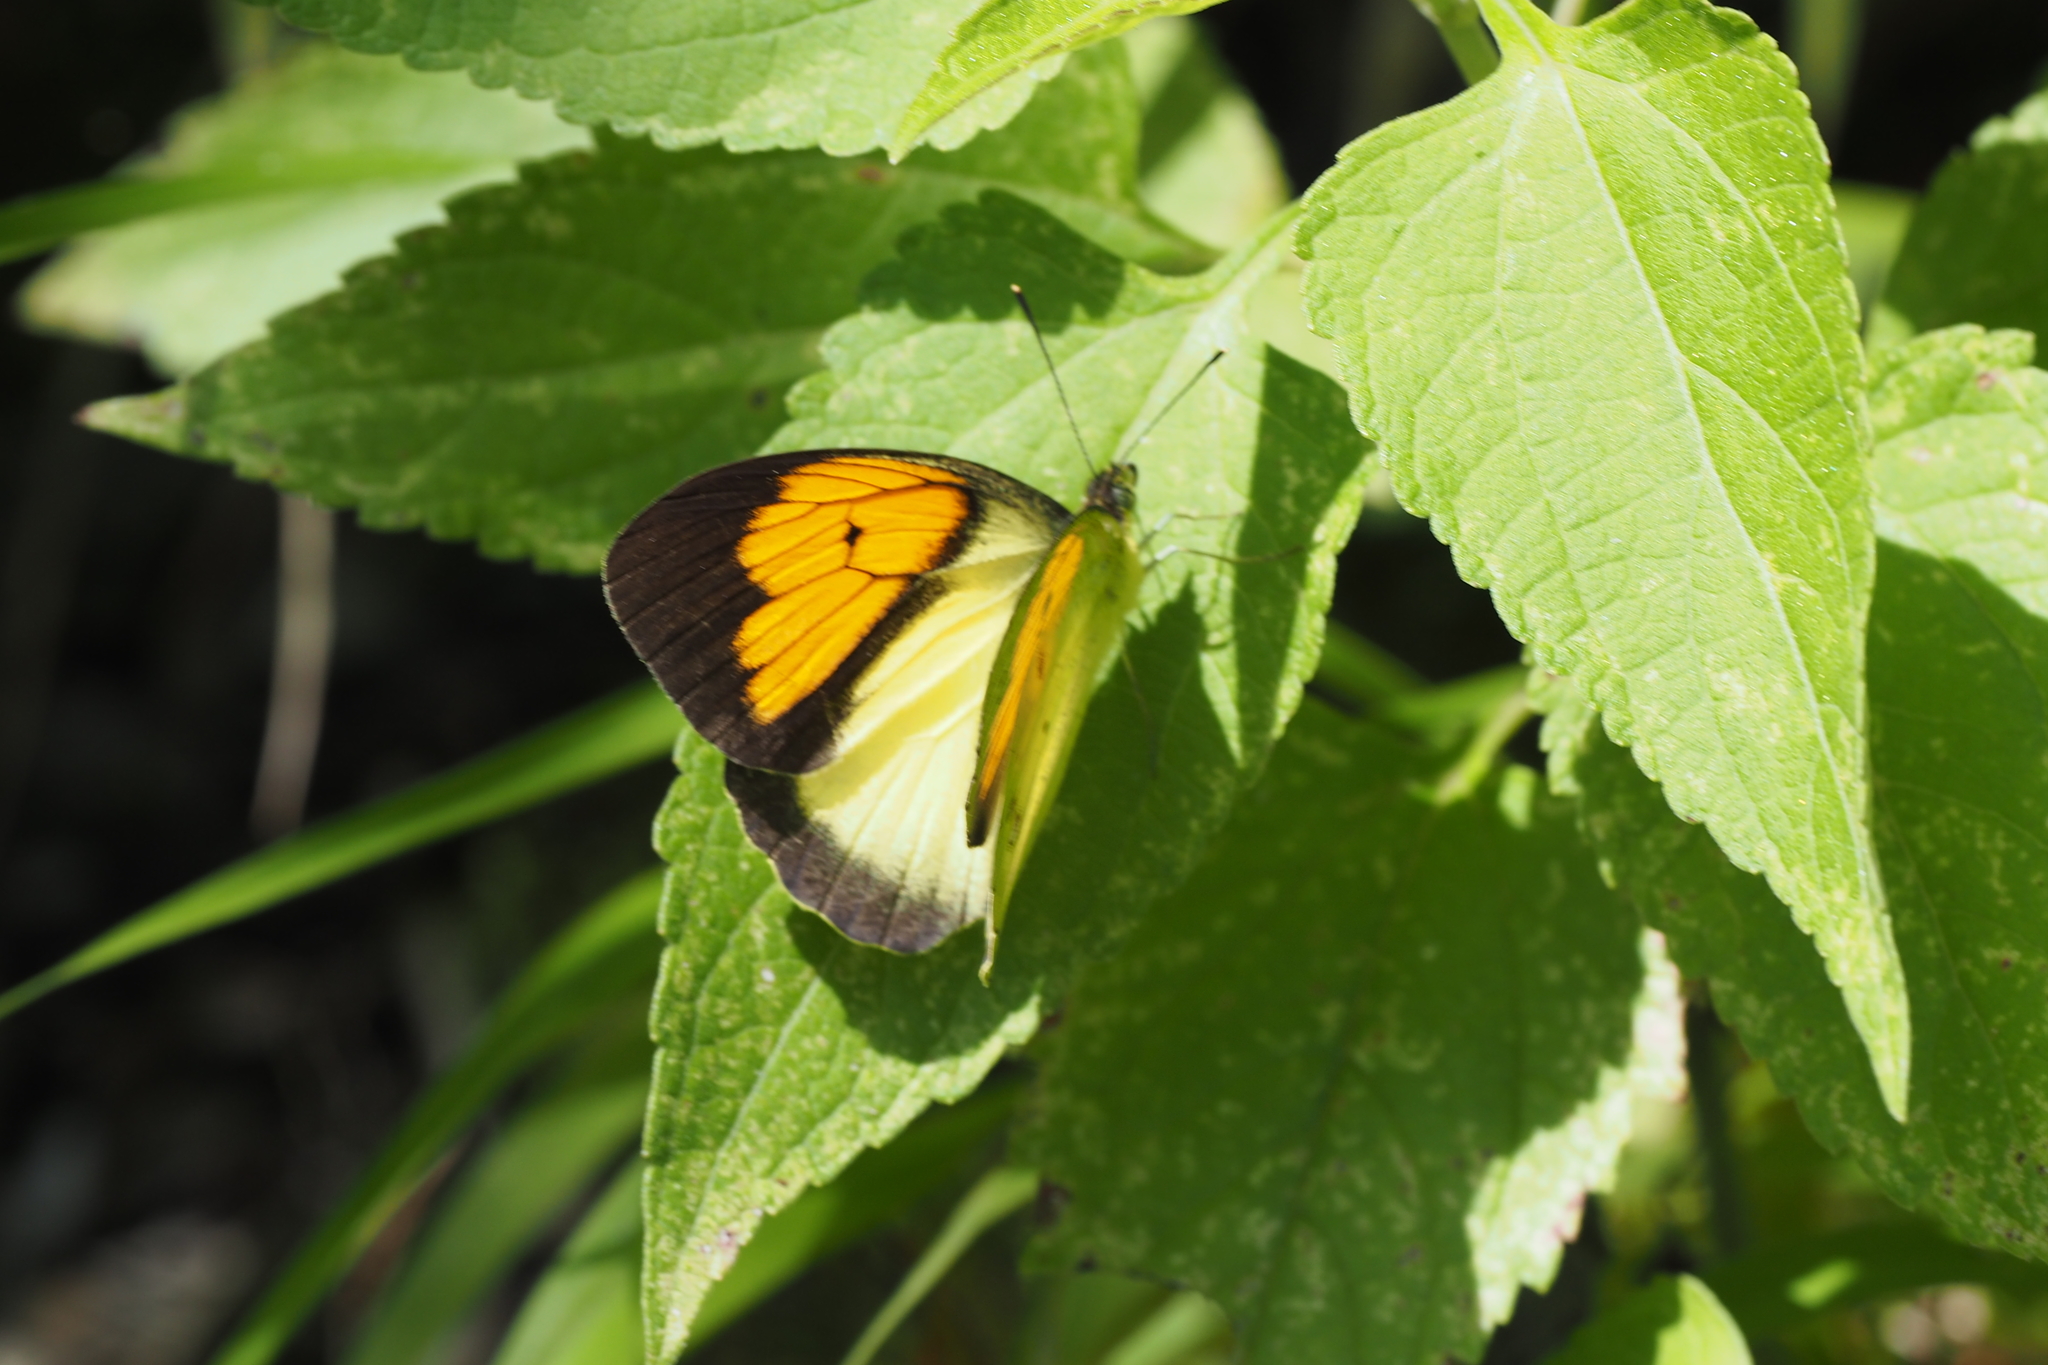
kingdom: Animalia
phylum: Arthropoda
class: Insecta
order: Lepidoptera
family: Pieridae
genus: Ixias
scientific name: Ixias pyrene
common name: Yellow orange tip
